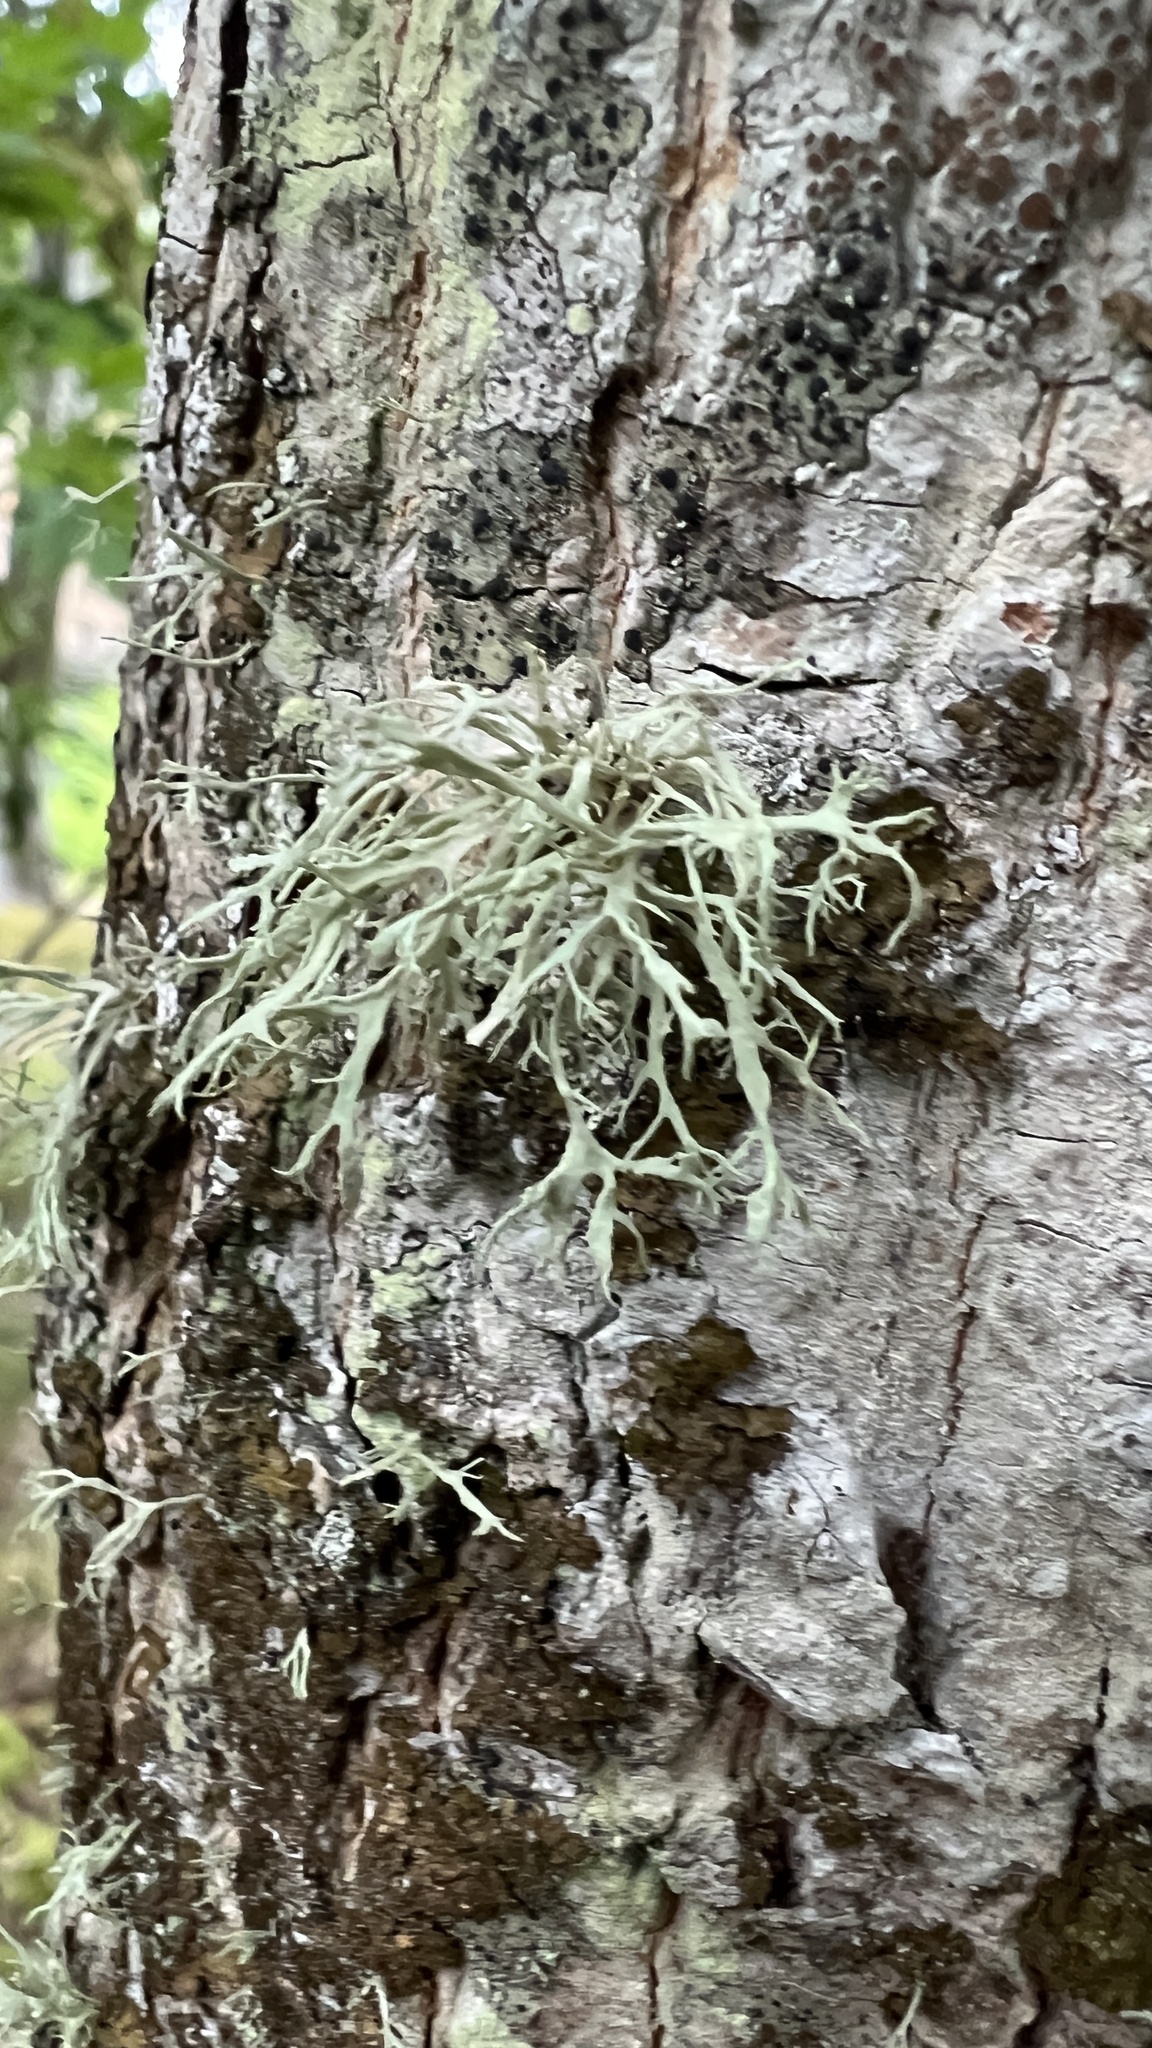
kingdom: Fungi
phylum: Ascomycota
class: Lecanoromycetes
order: Lecanorales
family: Ramalinaceae
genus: Ramalina
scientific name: Ramalina farinacea
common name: Farinose cartilage lichen
